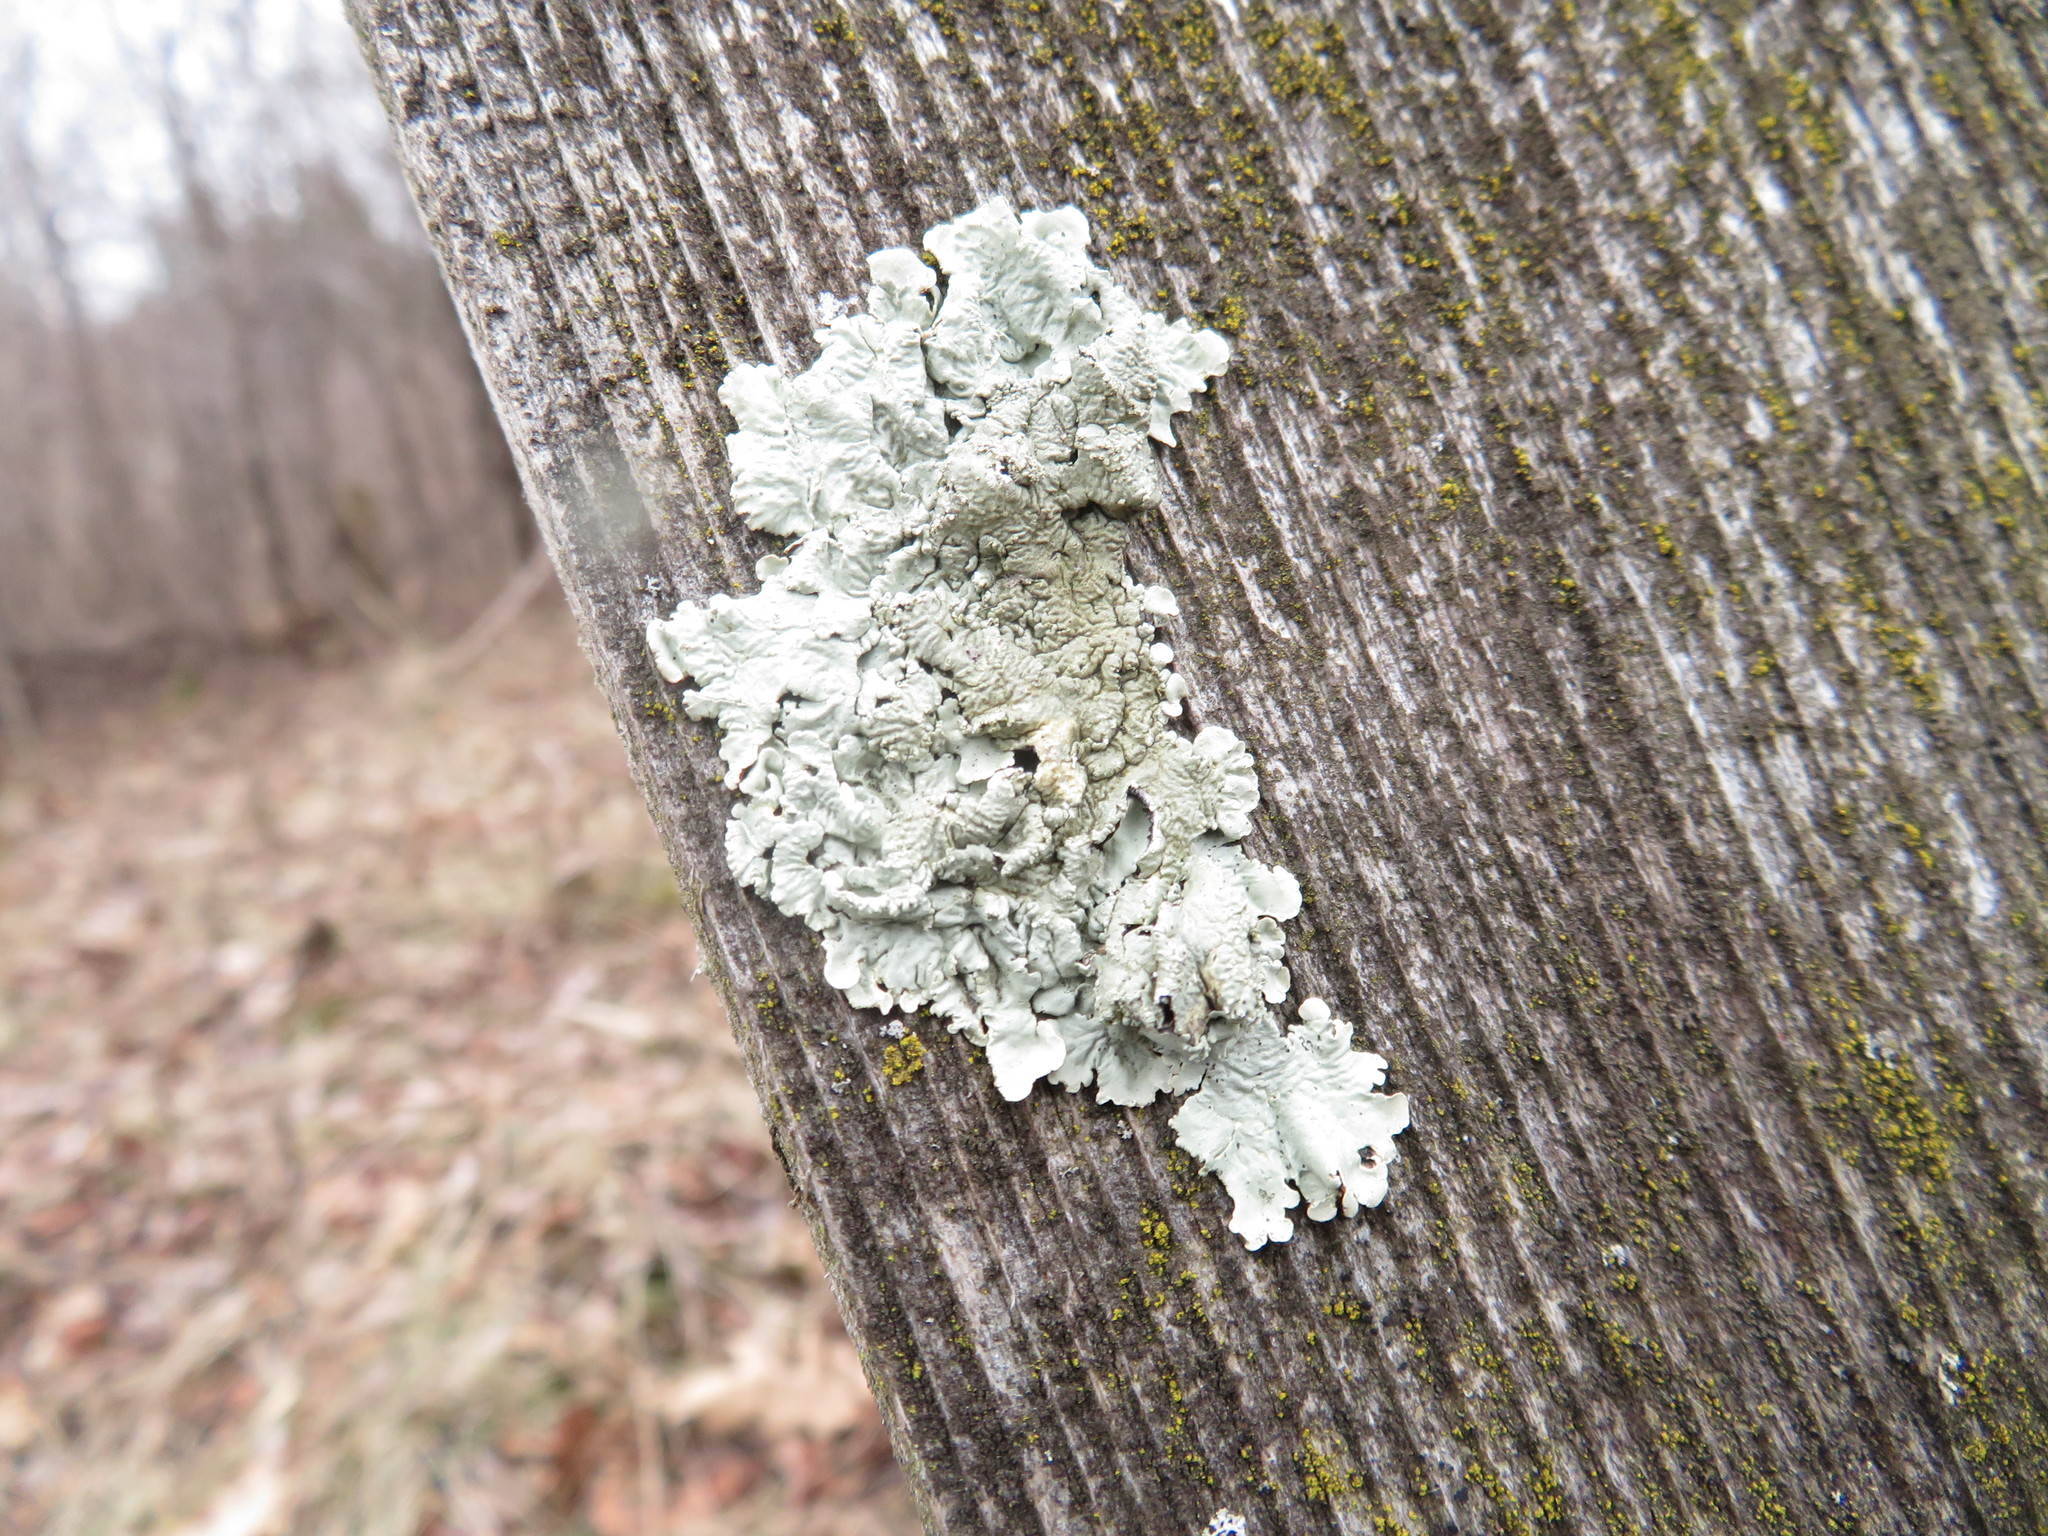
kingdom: Fungi
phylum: Ascomycota
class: Lecanoromycetes
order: Lecanorales
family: Parmeliaceae
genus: Flavoparmelia
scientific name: Flavoparmelia caperata
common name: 40-mile per hour lichen
